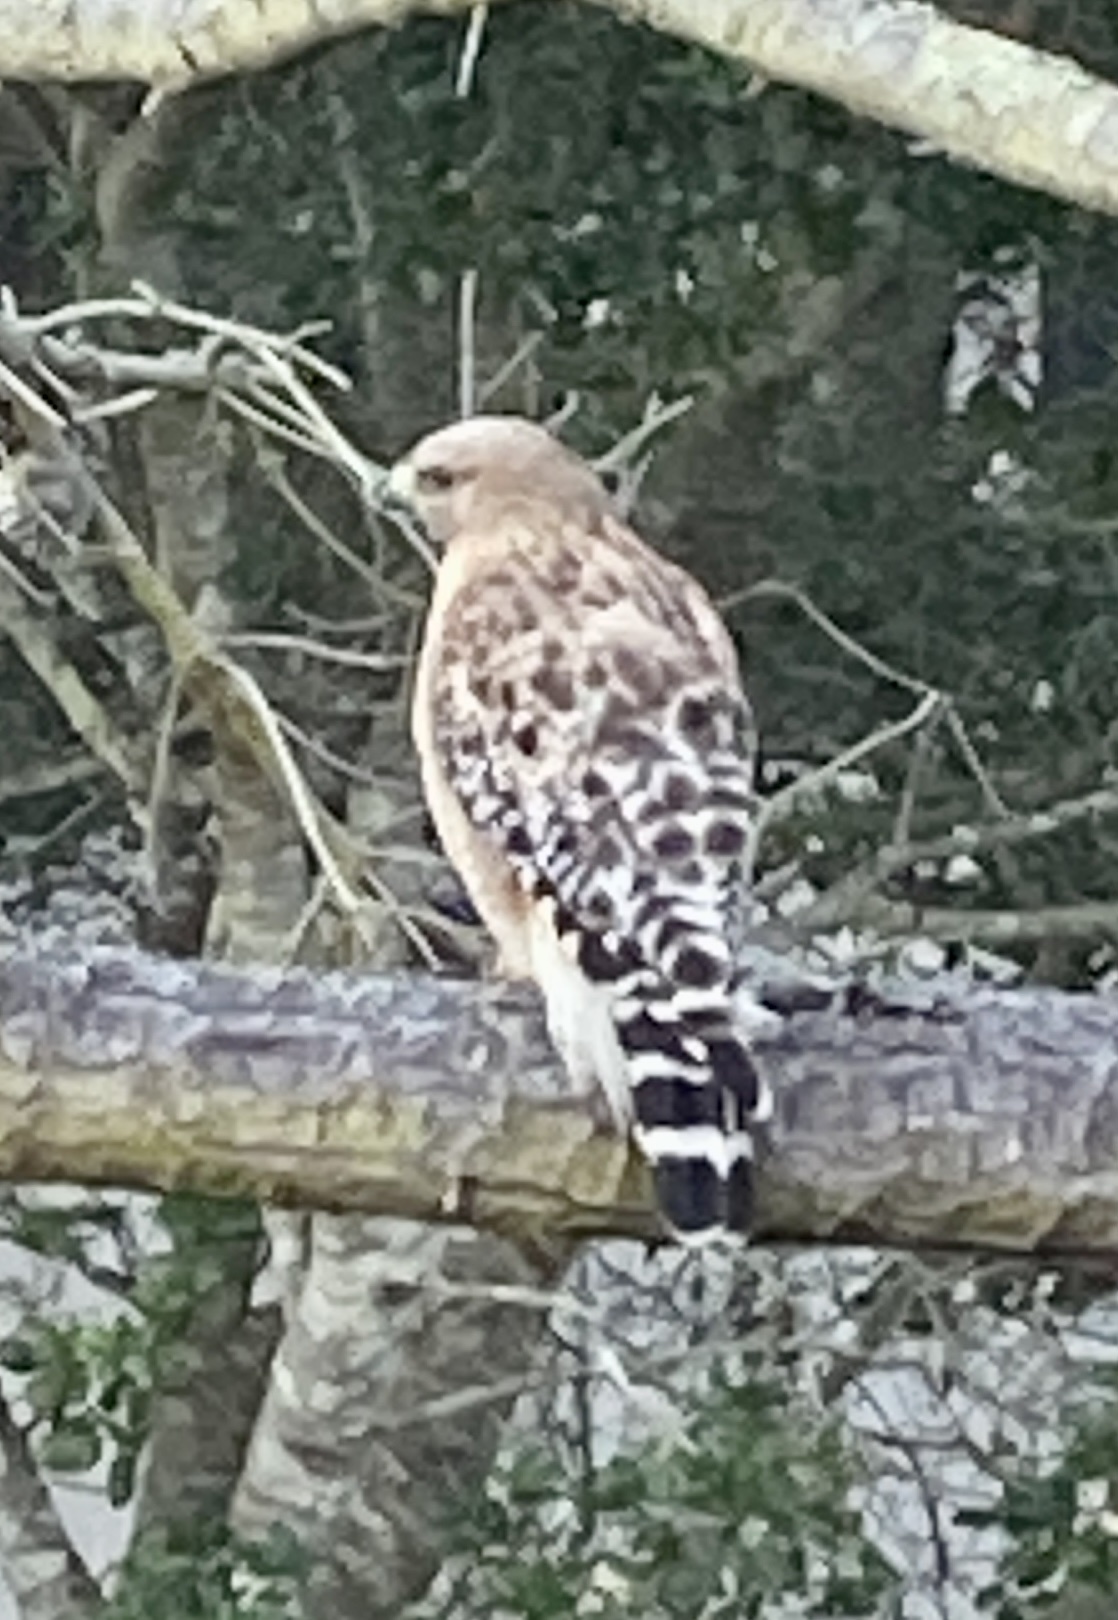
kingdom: Animalia
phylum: Chordata
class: Aves
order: Accipitriformes
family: Accipitridae
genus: Buteo
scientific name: Buteo lineatus
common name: Red-shouldered hawk
